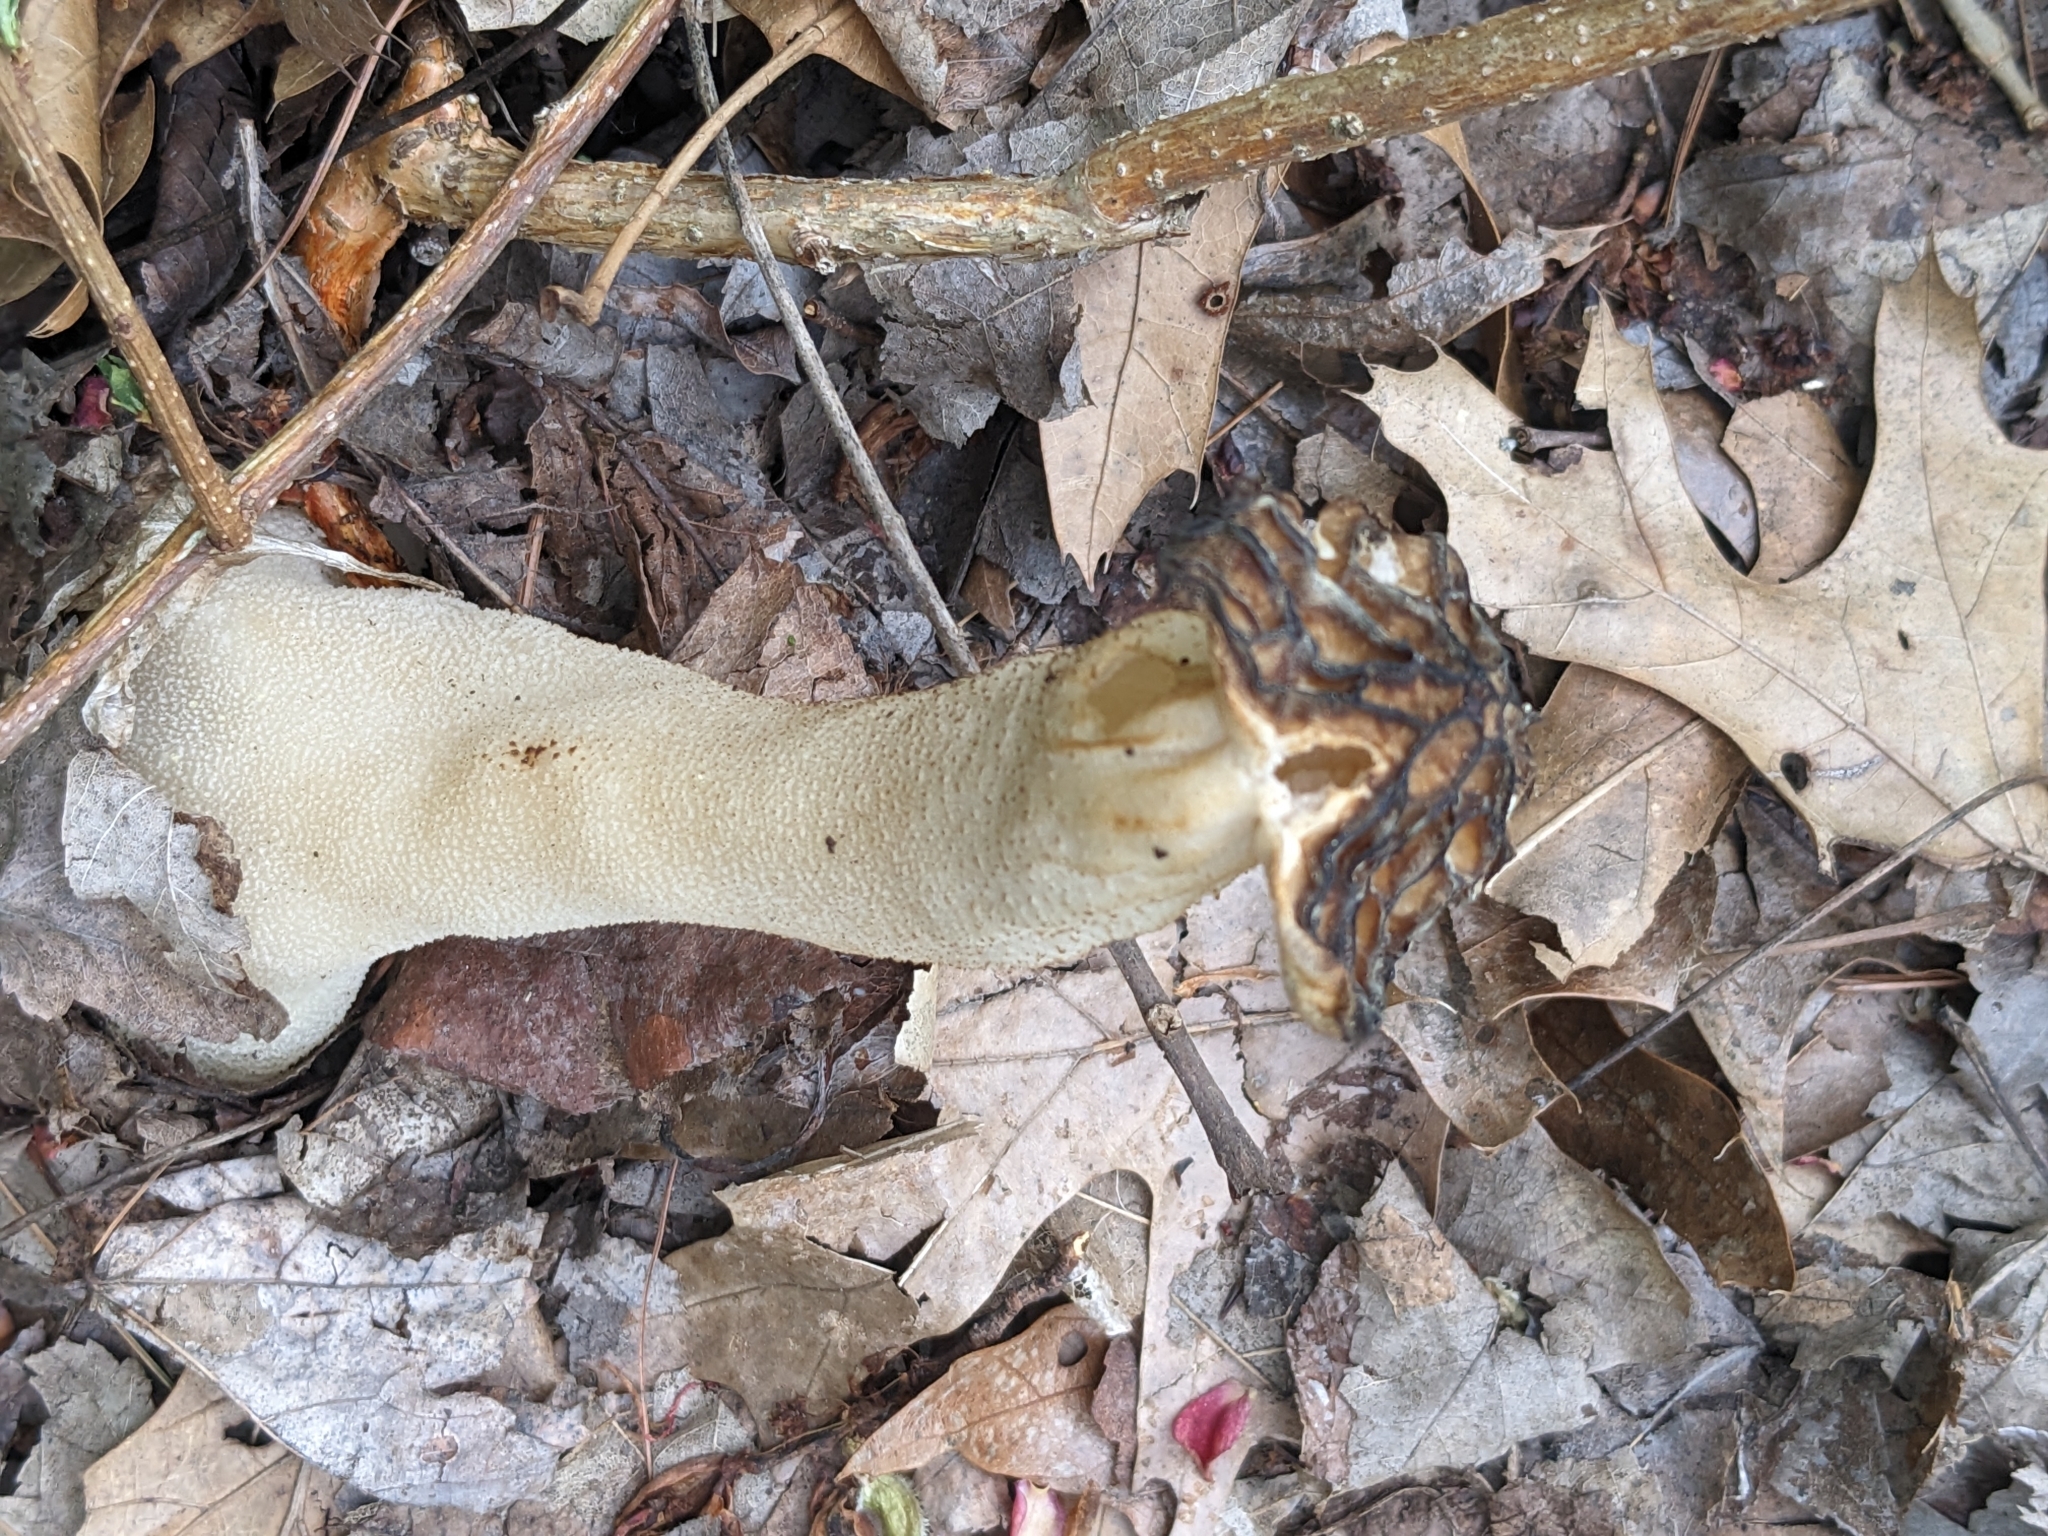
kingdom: Fungi
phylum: Ascomycota
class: Pezizomycetes
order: Pezizales
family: Morchellaceae
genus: Morchella
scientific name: Morchella punctipes
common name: Half-free morel
